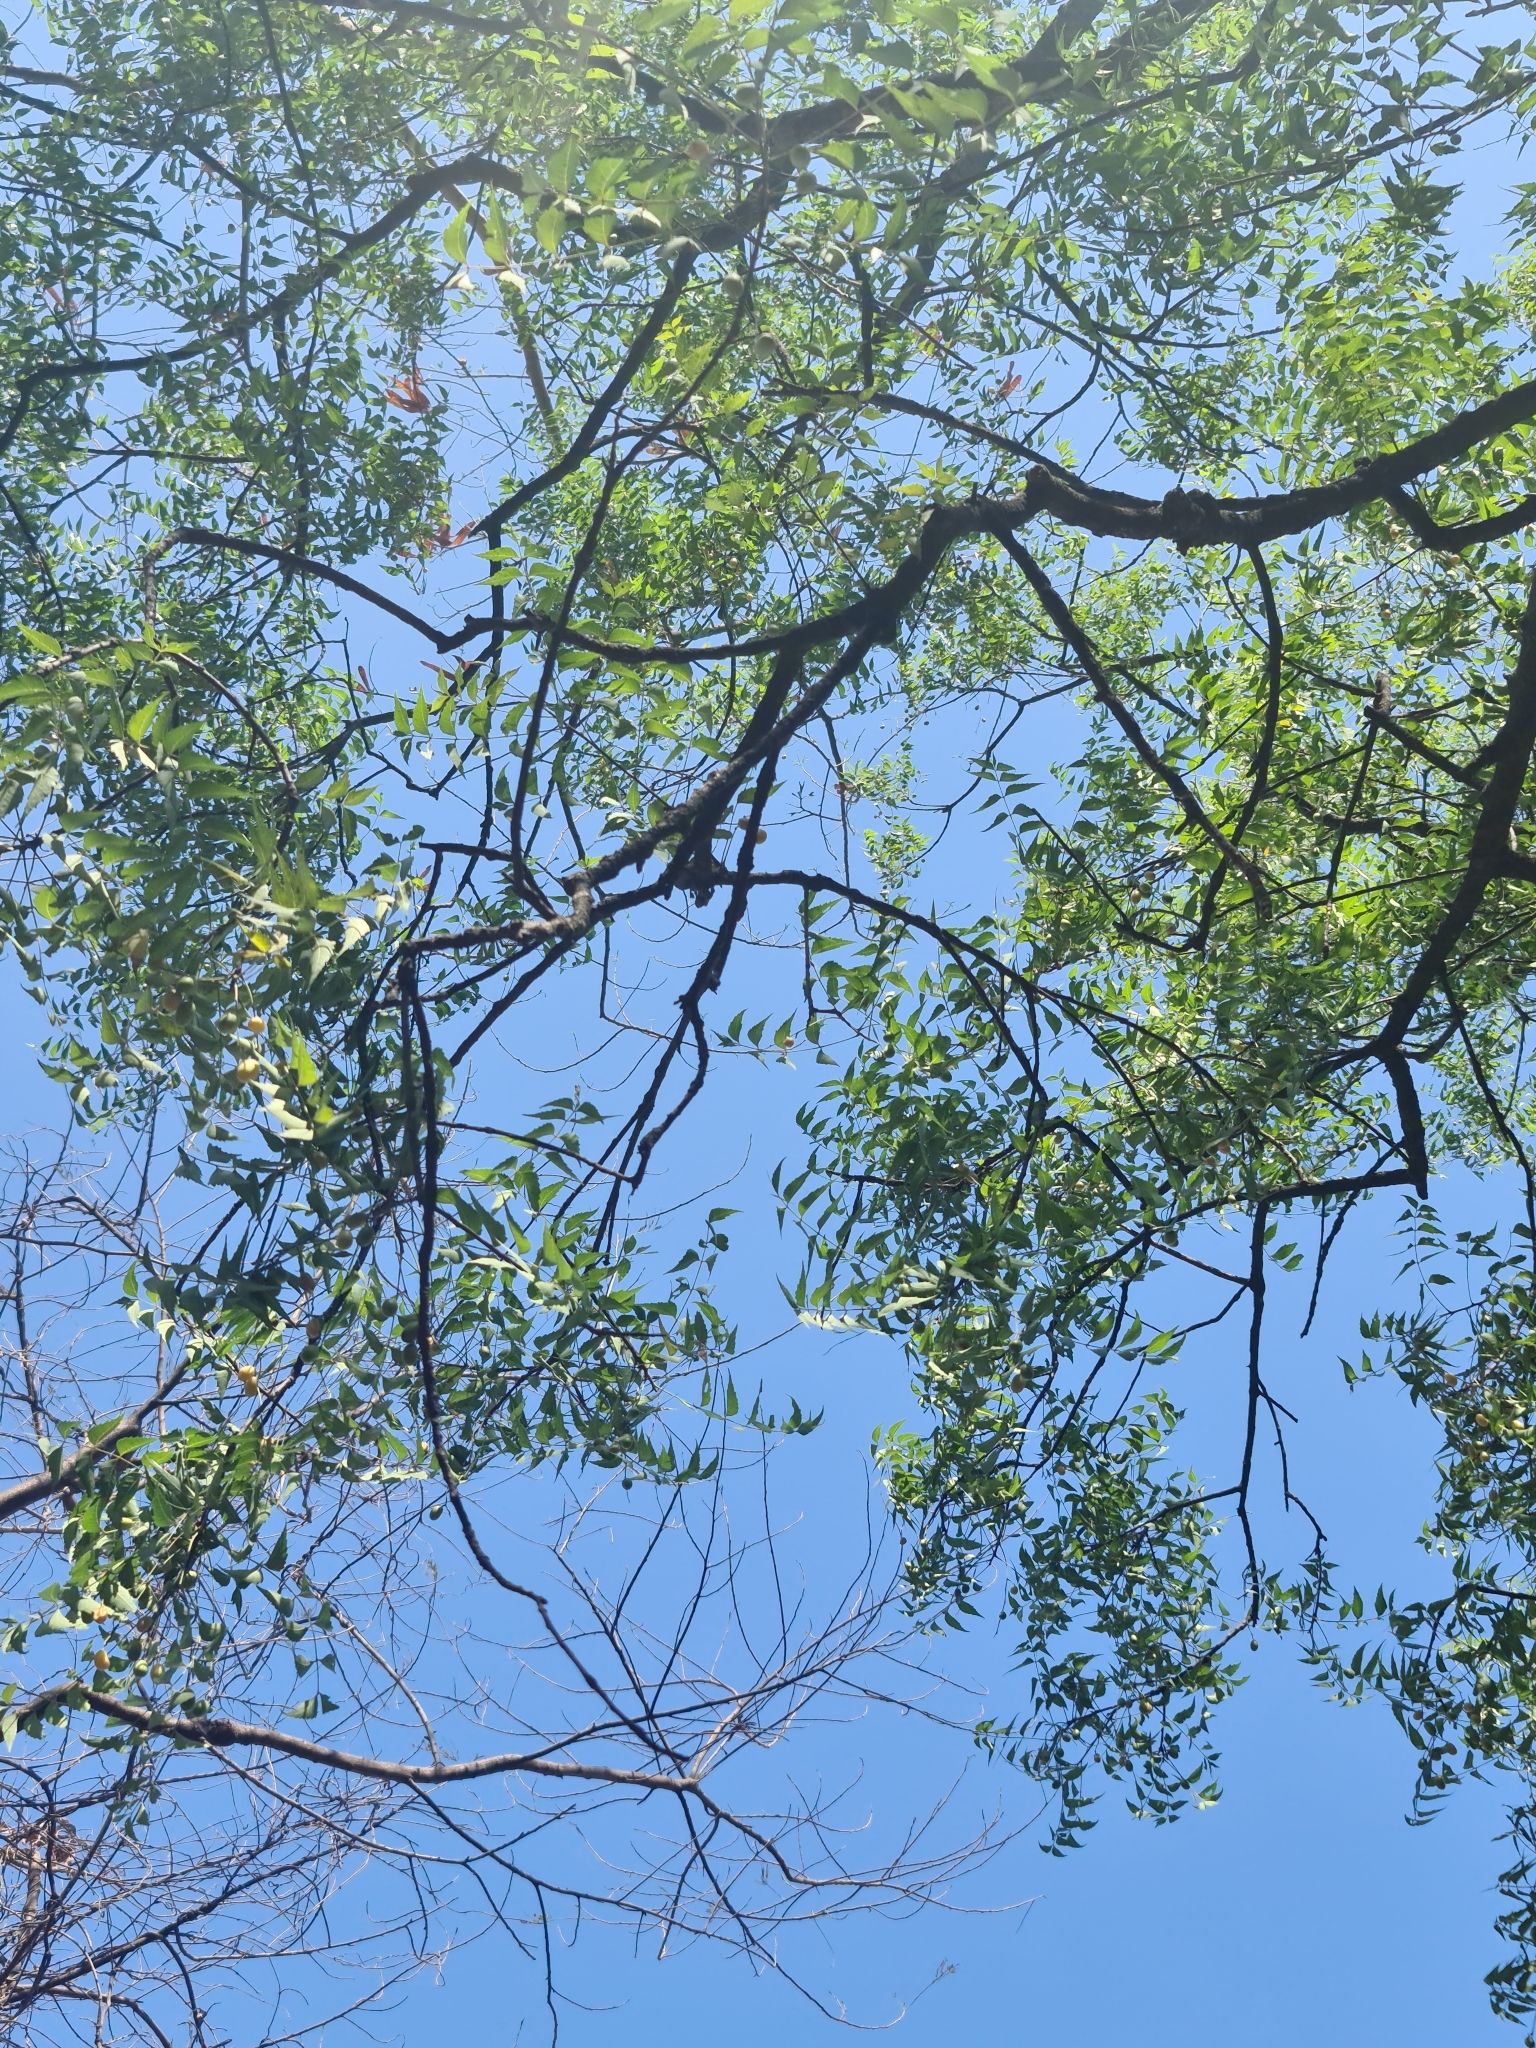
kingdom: Plantae
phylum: Tracheophyta
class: Magnoliopsida
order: Sapindales
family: Meliaceae
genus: Azadirachta
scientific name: Azadirachta indica
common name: Neem
